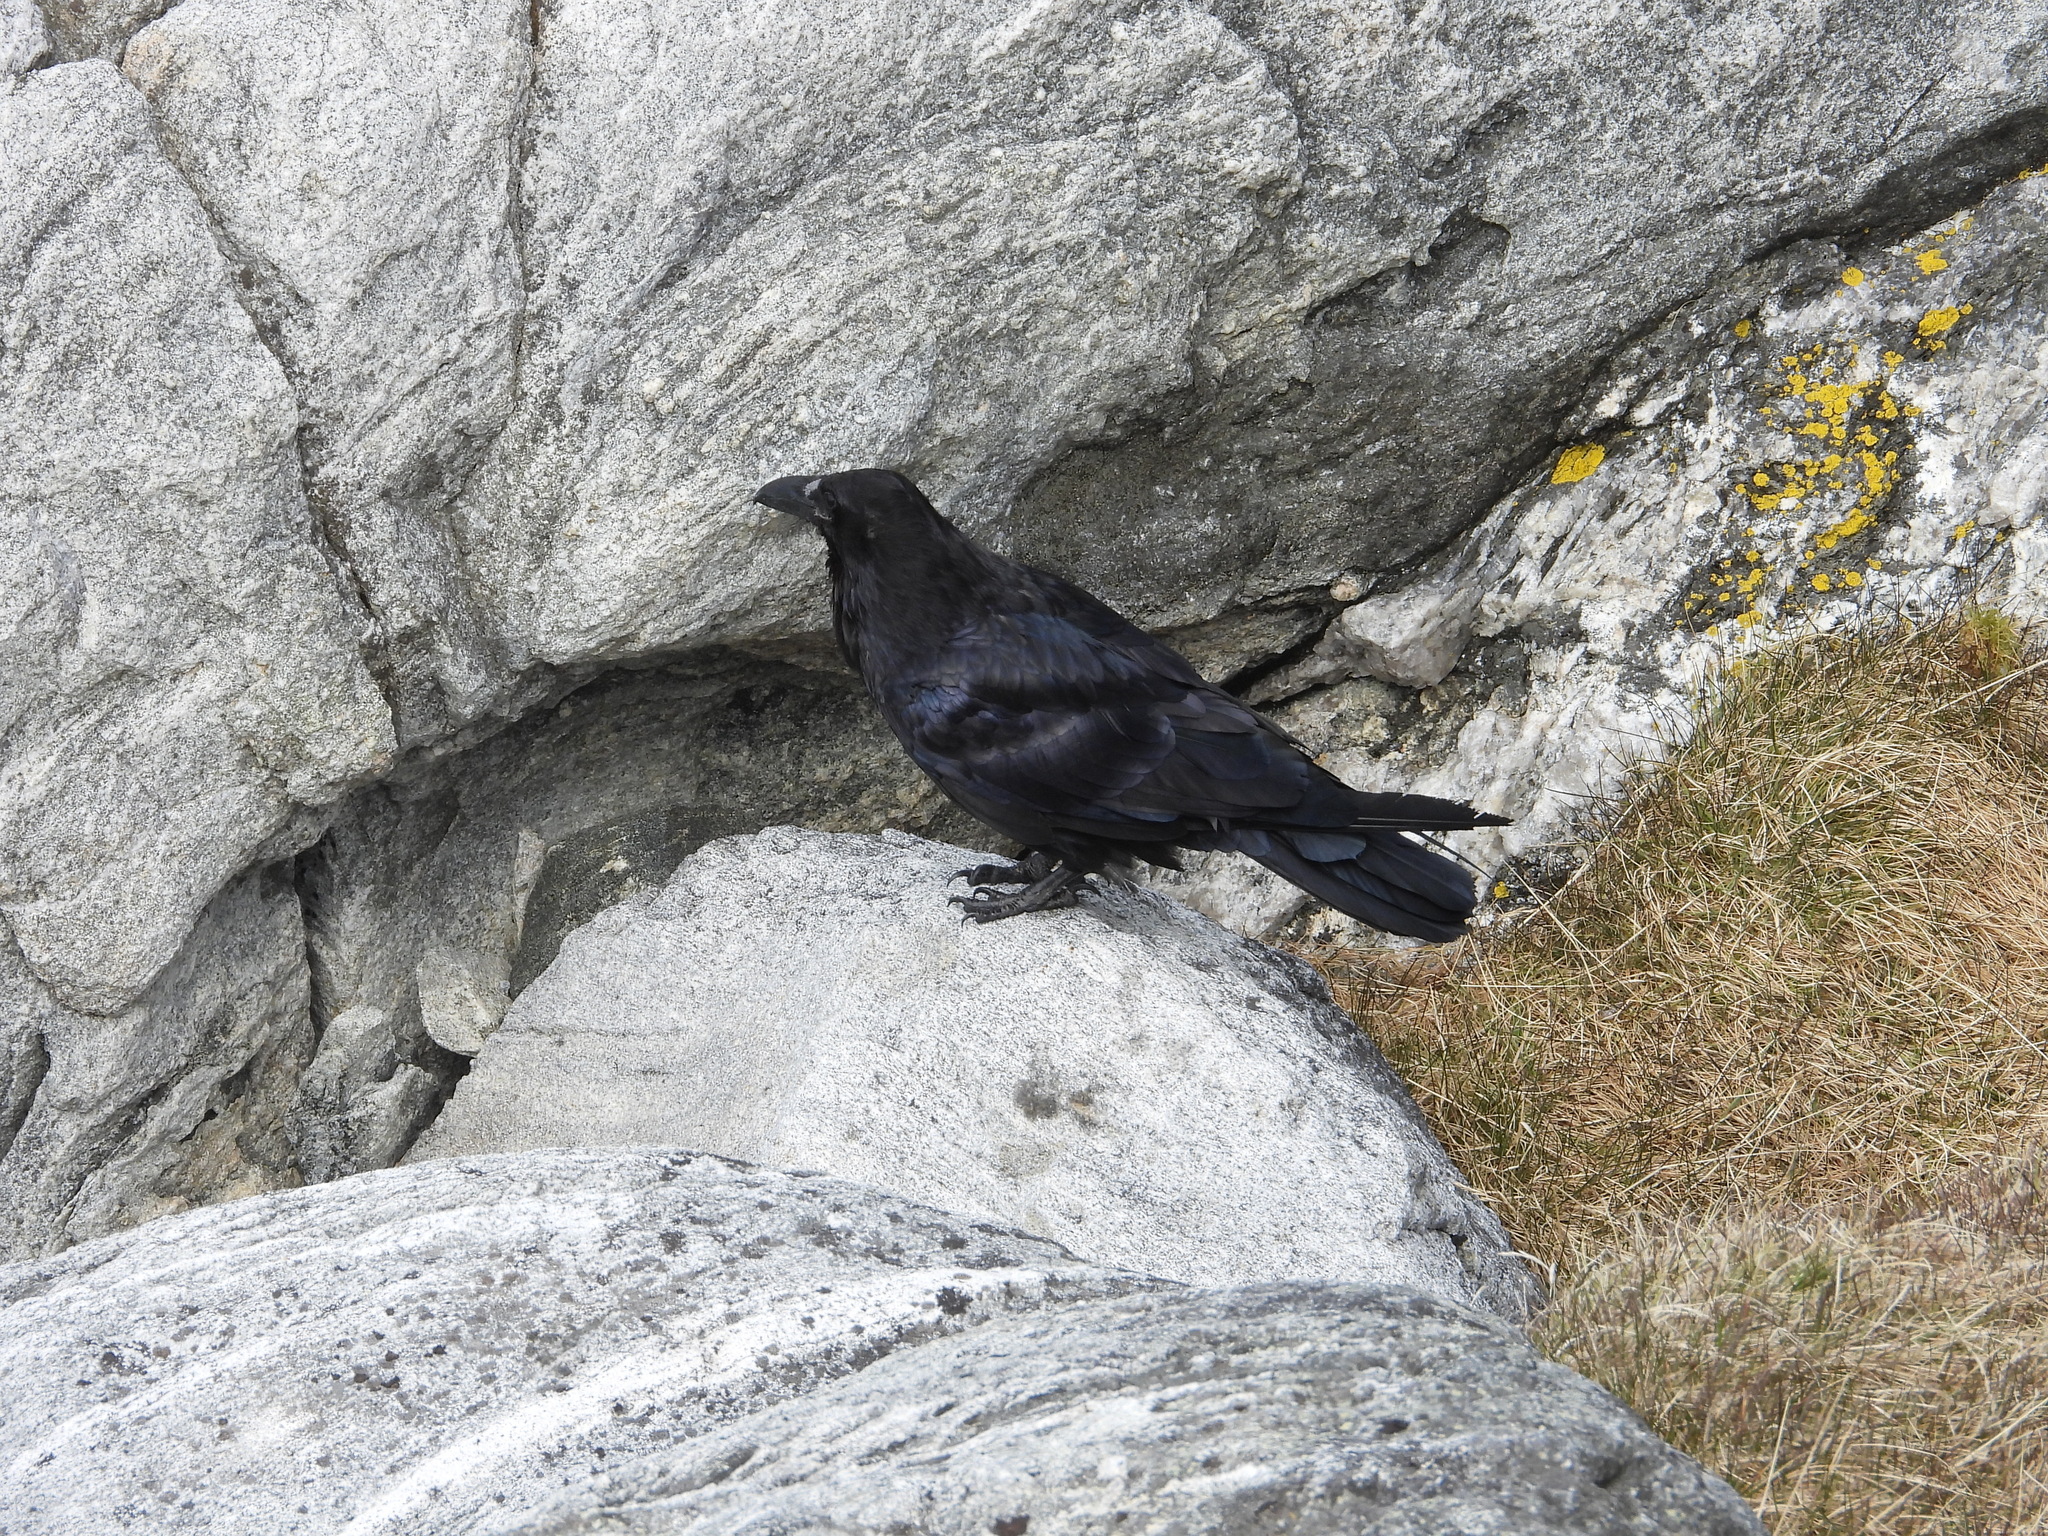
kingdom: Animalia
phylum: Chordata
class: Aves
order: Passeriformes
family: Corvidae
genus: Corvus
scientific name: Corvus corax
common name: Common raven
